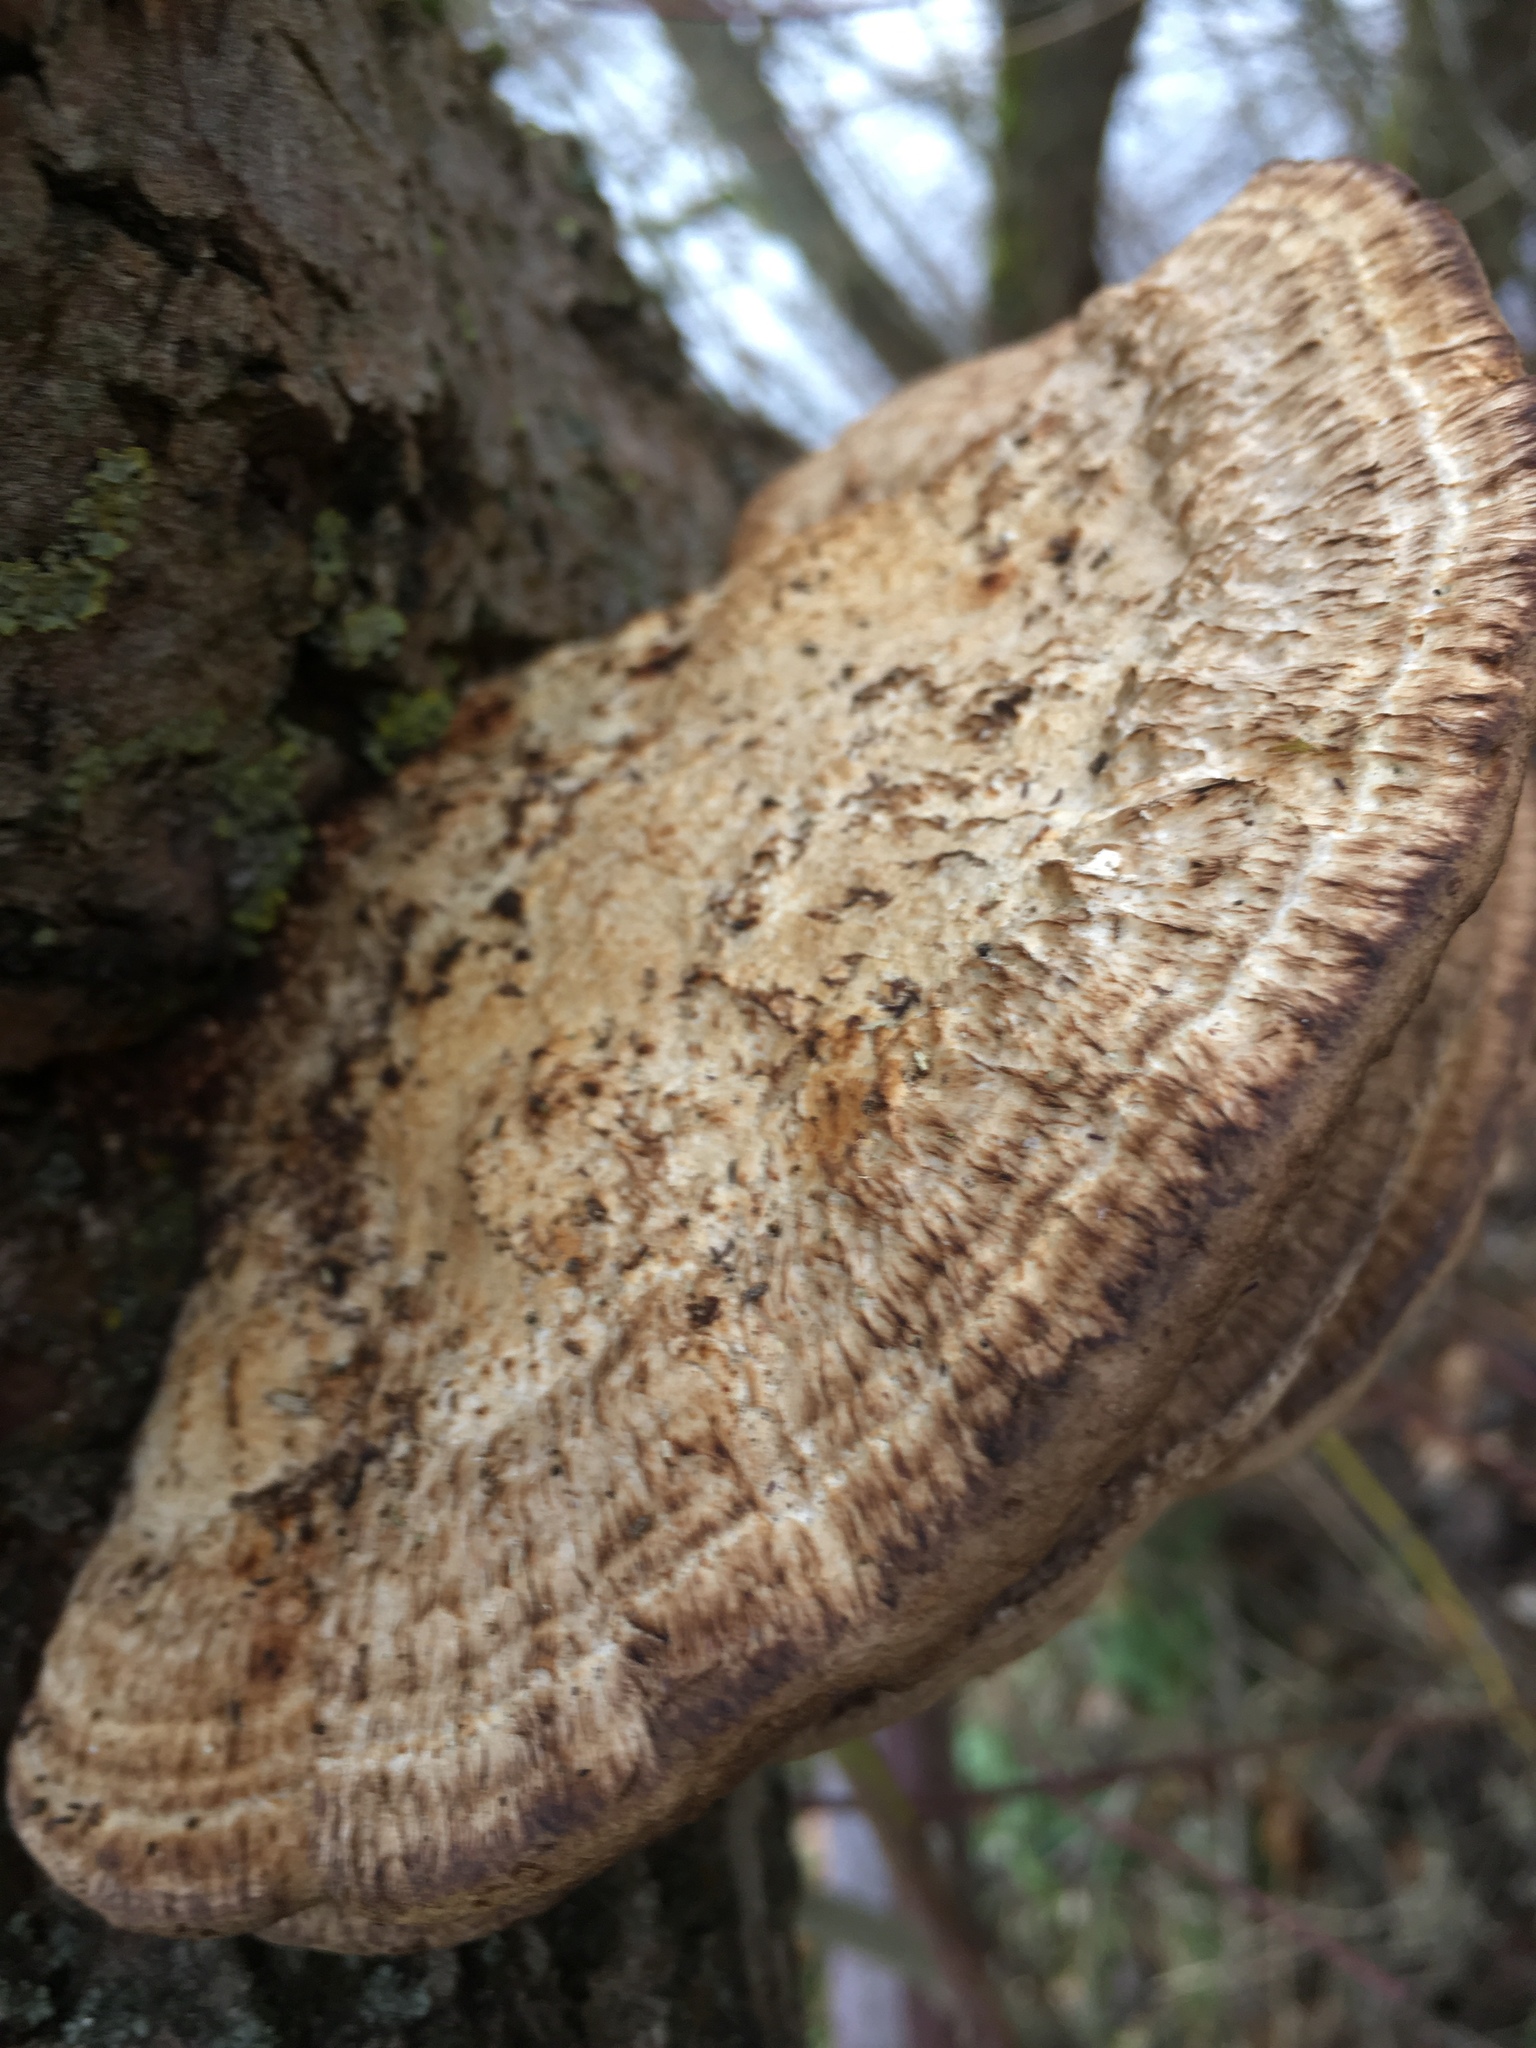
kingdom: Fungi
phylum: Basidiomycota
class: Agaricomycetes
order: Polyporales
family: Polyporaceae
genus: Daedaleopsis
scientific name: Daedaleopsis confragosa
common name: Blushing bracket
